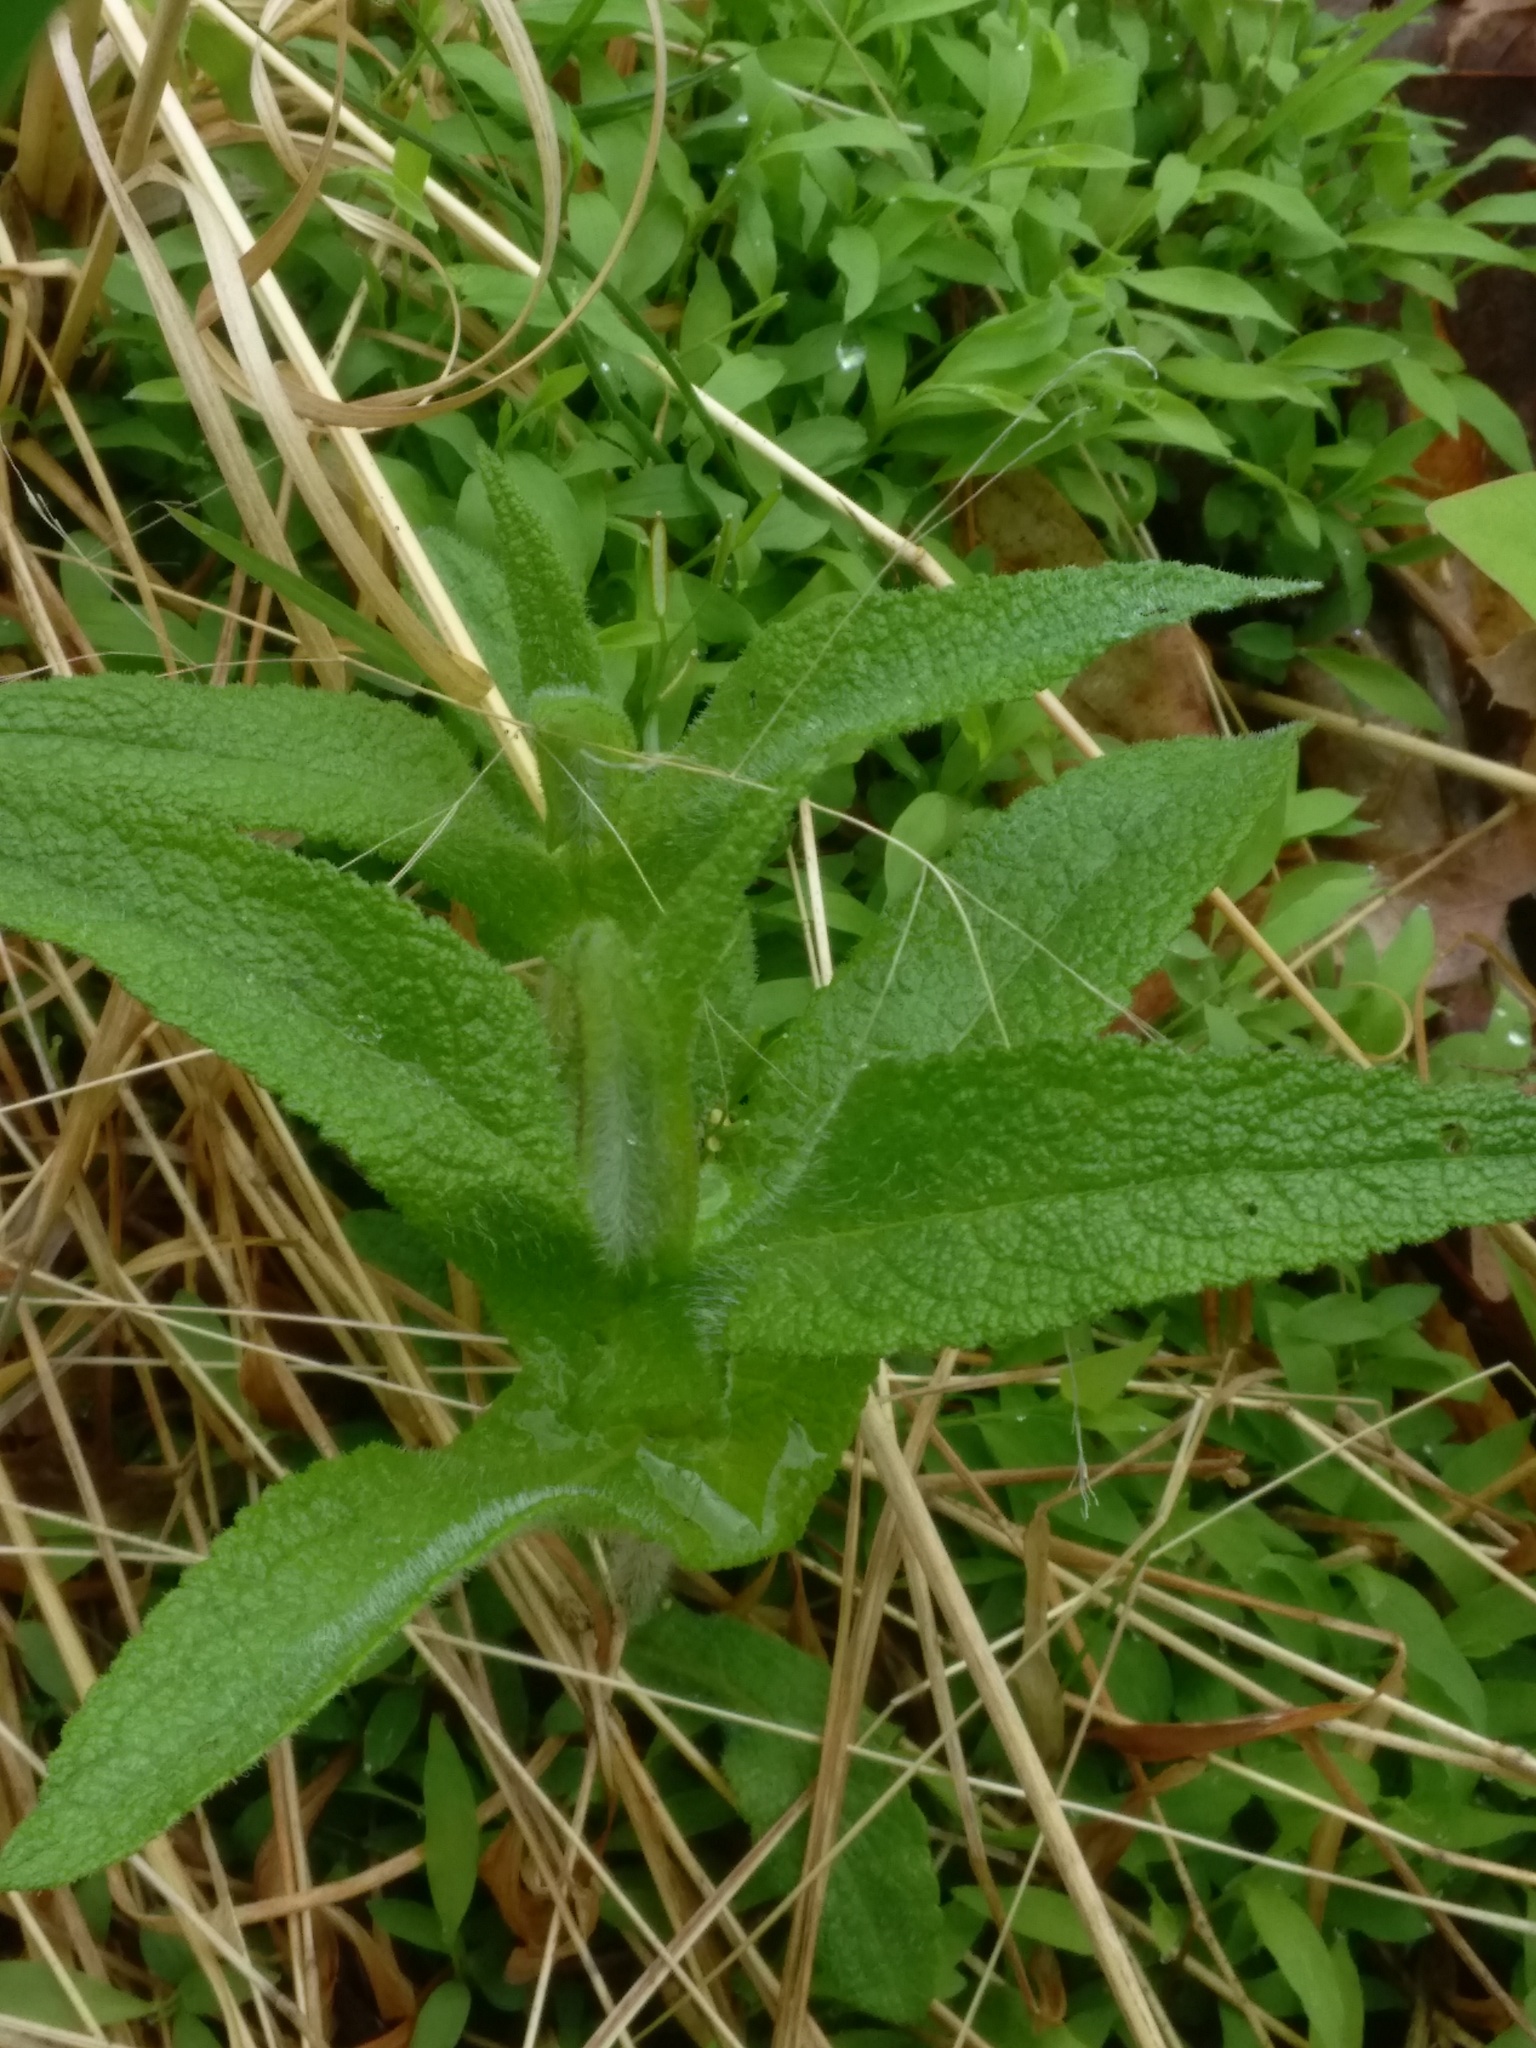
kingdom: Plantae
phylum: Tracheophyta
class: Magnoliopsida
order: Asterales
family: Asteraceae
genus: Eupatorium
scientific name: Eupatorium perfoliatum
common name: Boneset
